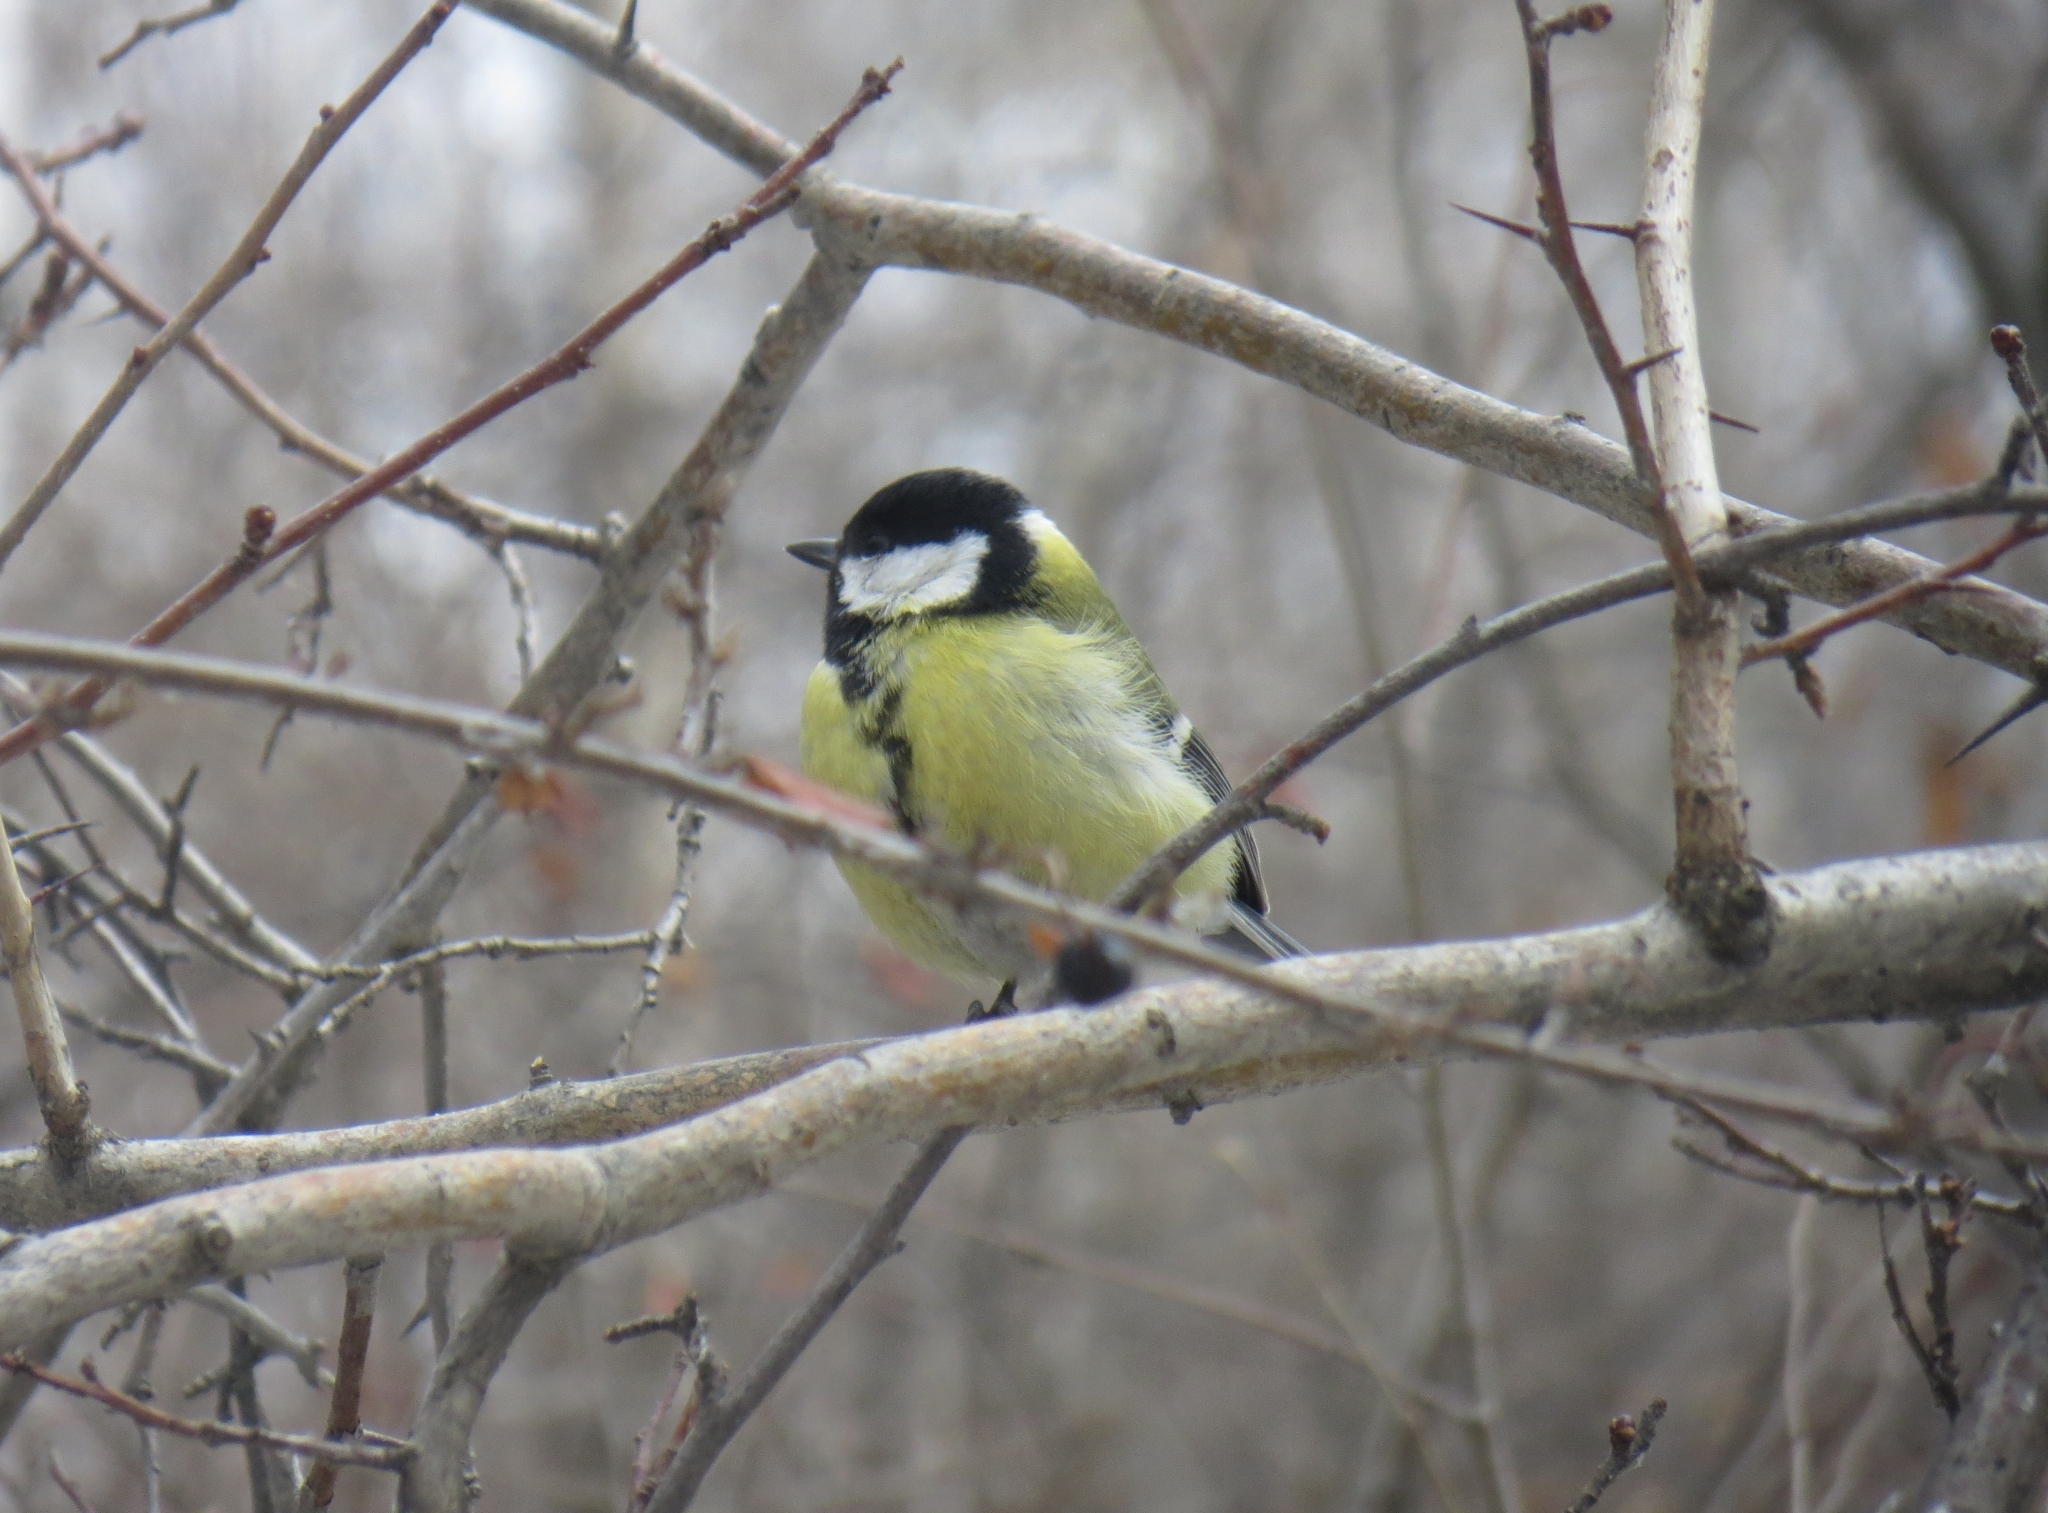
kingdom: Animalia
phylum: Chordata
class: Aves
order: Passeriformes
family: Paridae
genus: Parus
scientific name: Parus major
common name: Great tit
